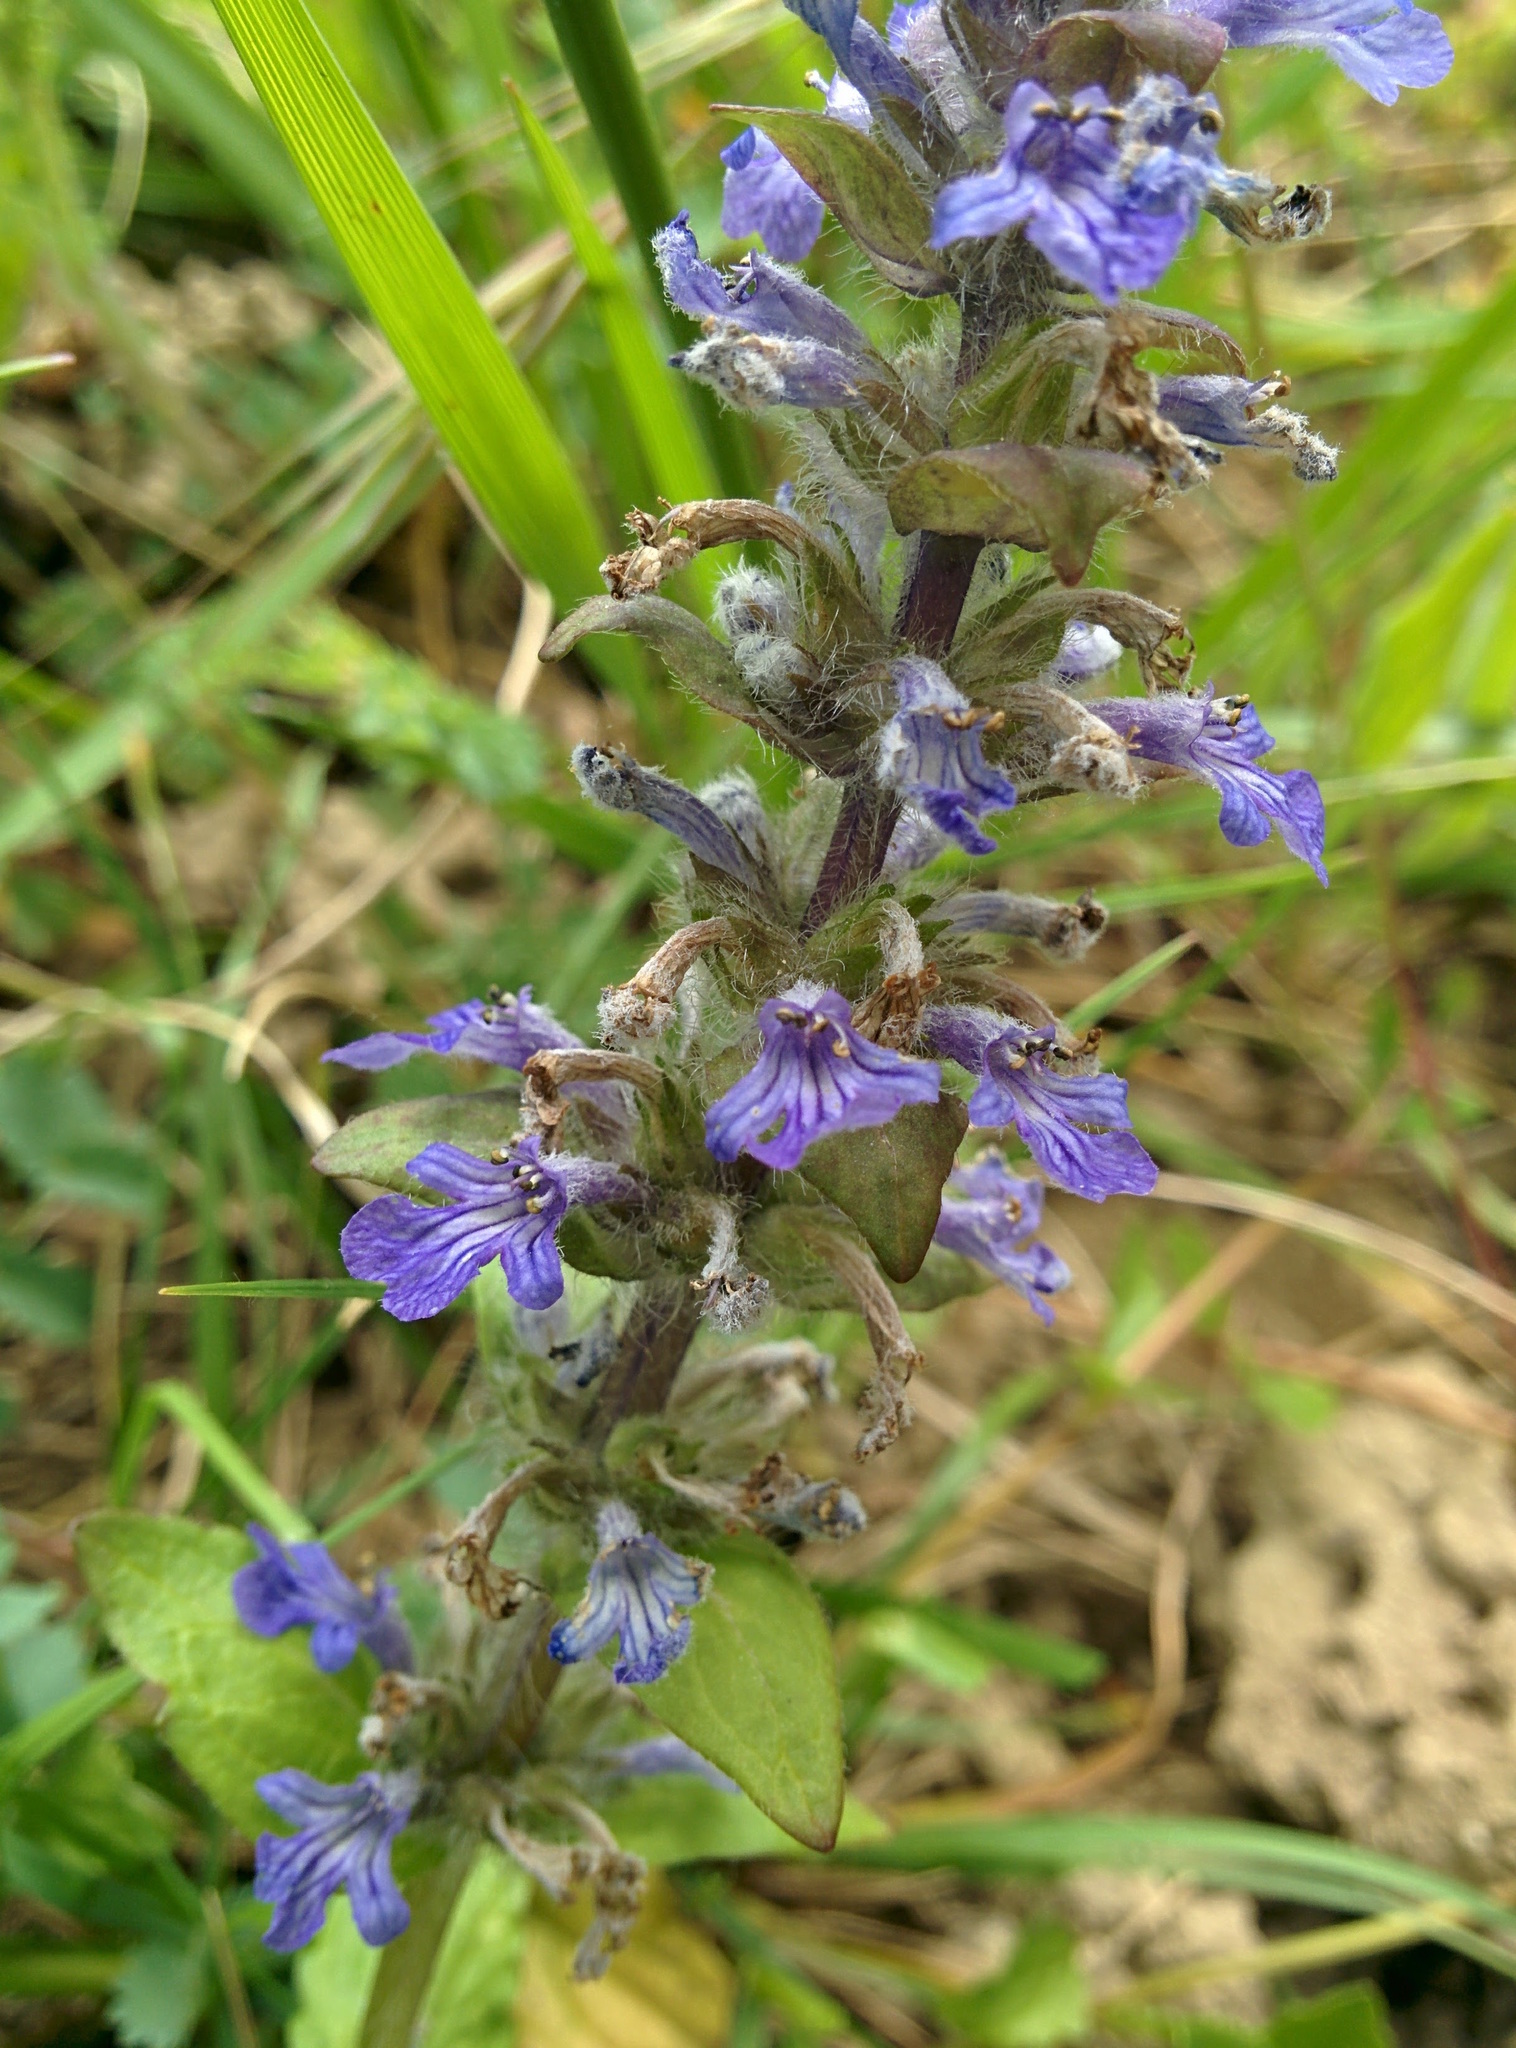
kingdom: Plantae
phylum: Tracheophyta
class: Magnoliopsida
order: Lamiales
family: Lamiaceae
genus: Ajuga
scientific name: Ajuga reptans
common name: Bugle
